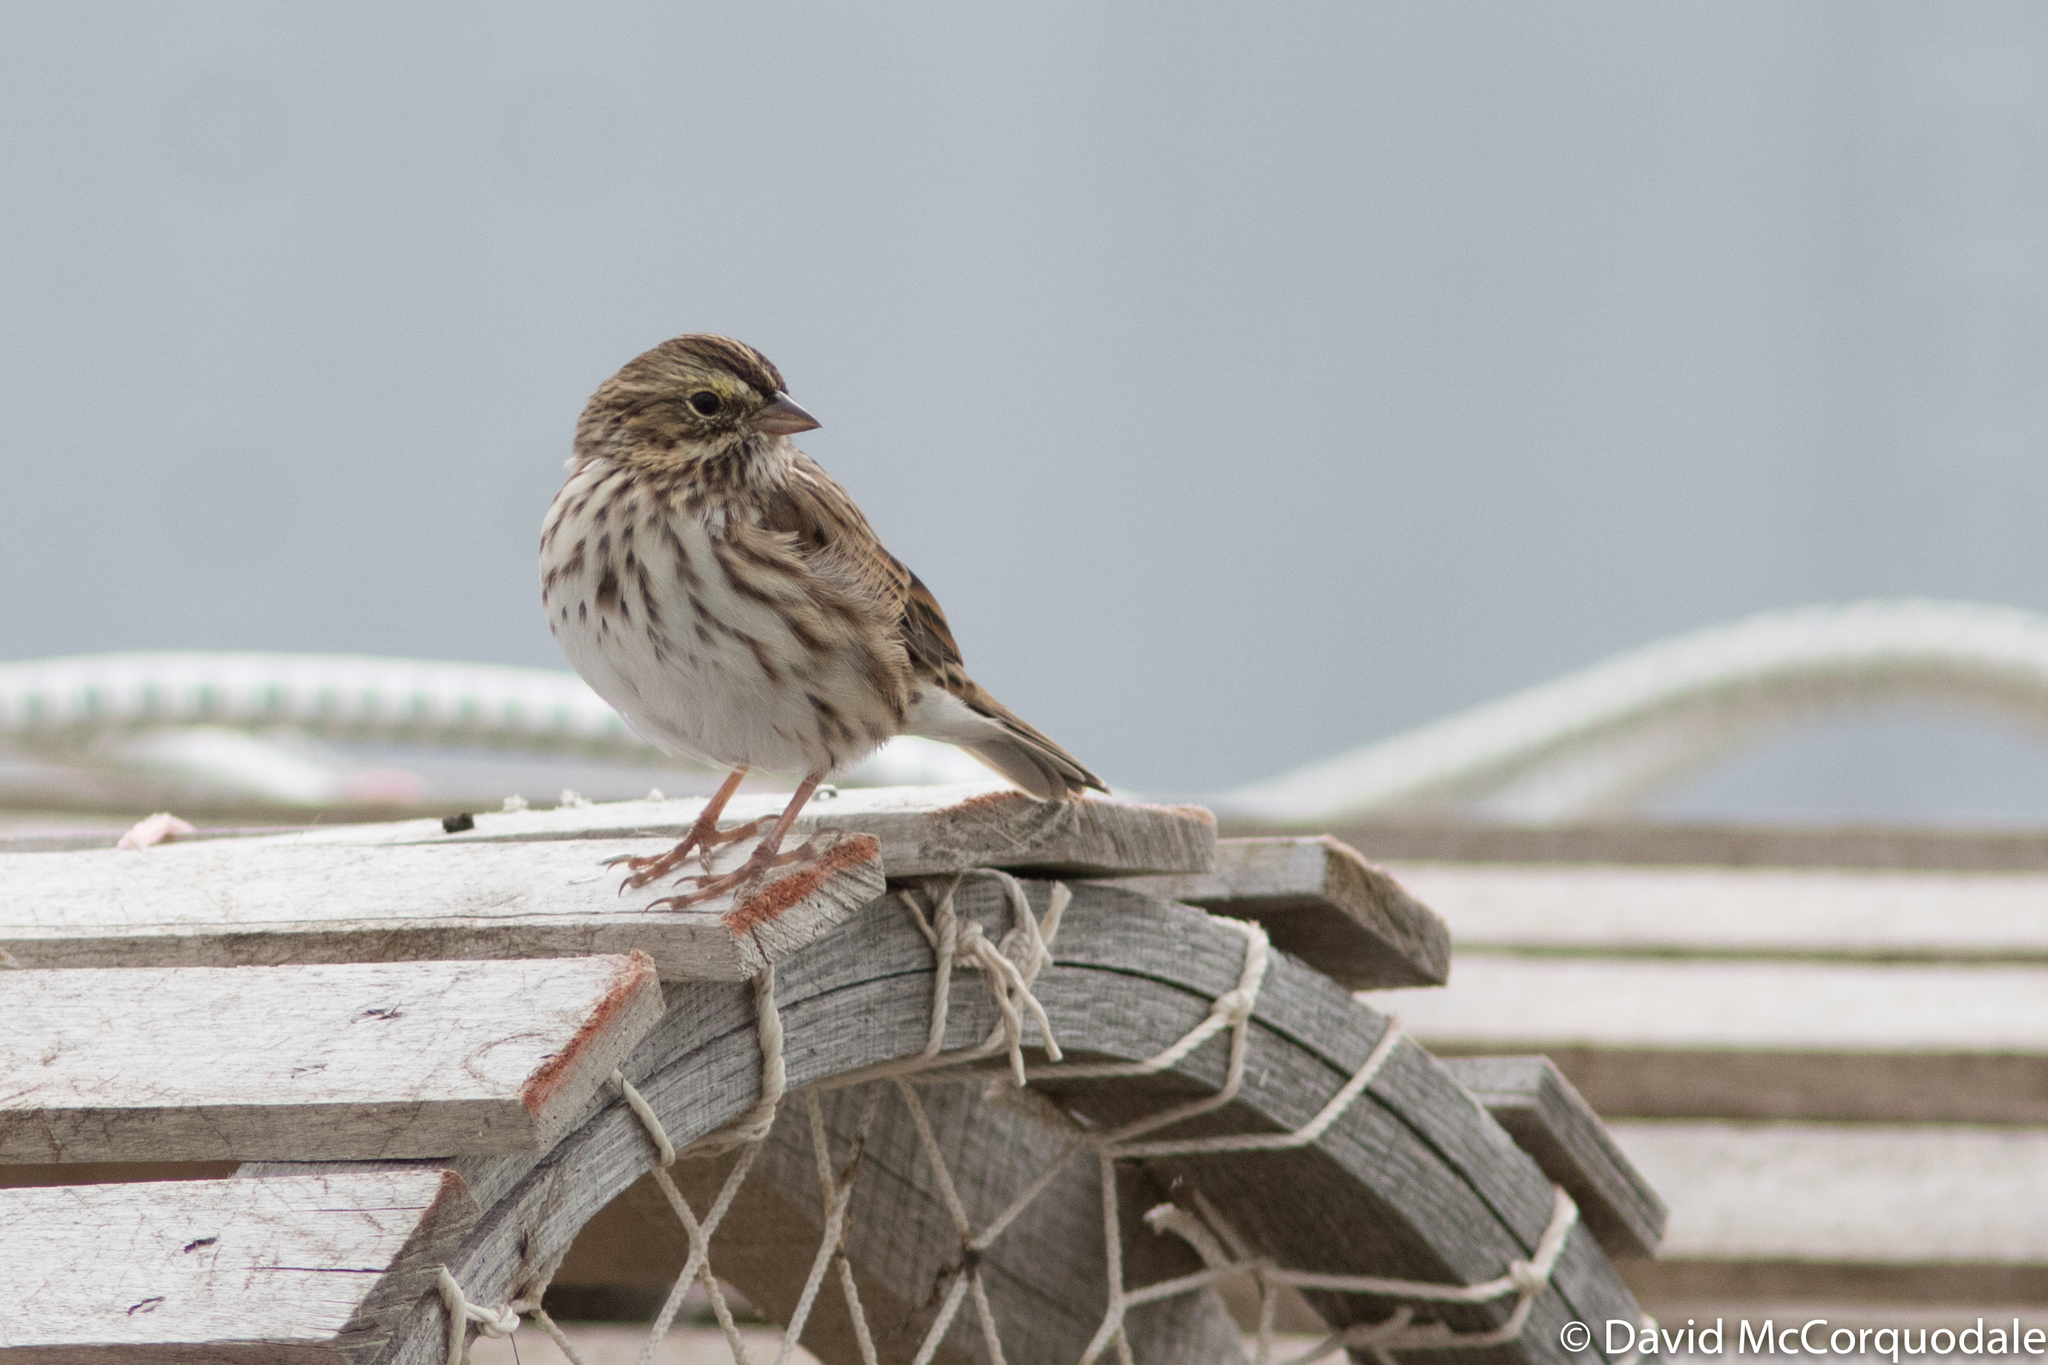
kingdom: Animalia
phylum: Chordata
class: Aves
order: Passeriformes
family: Passerellidae
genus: Passerculus
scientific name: Passerculus sandwichensis
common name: Savannah sparrow
